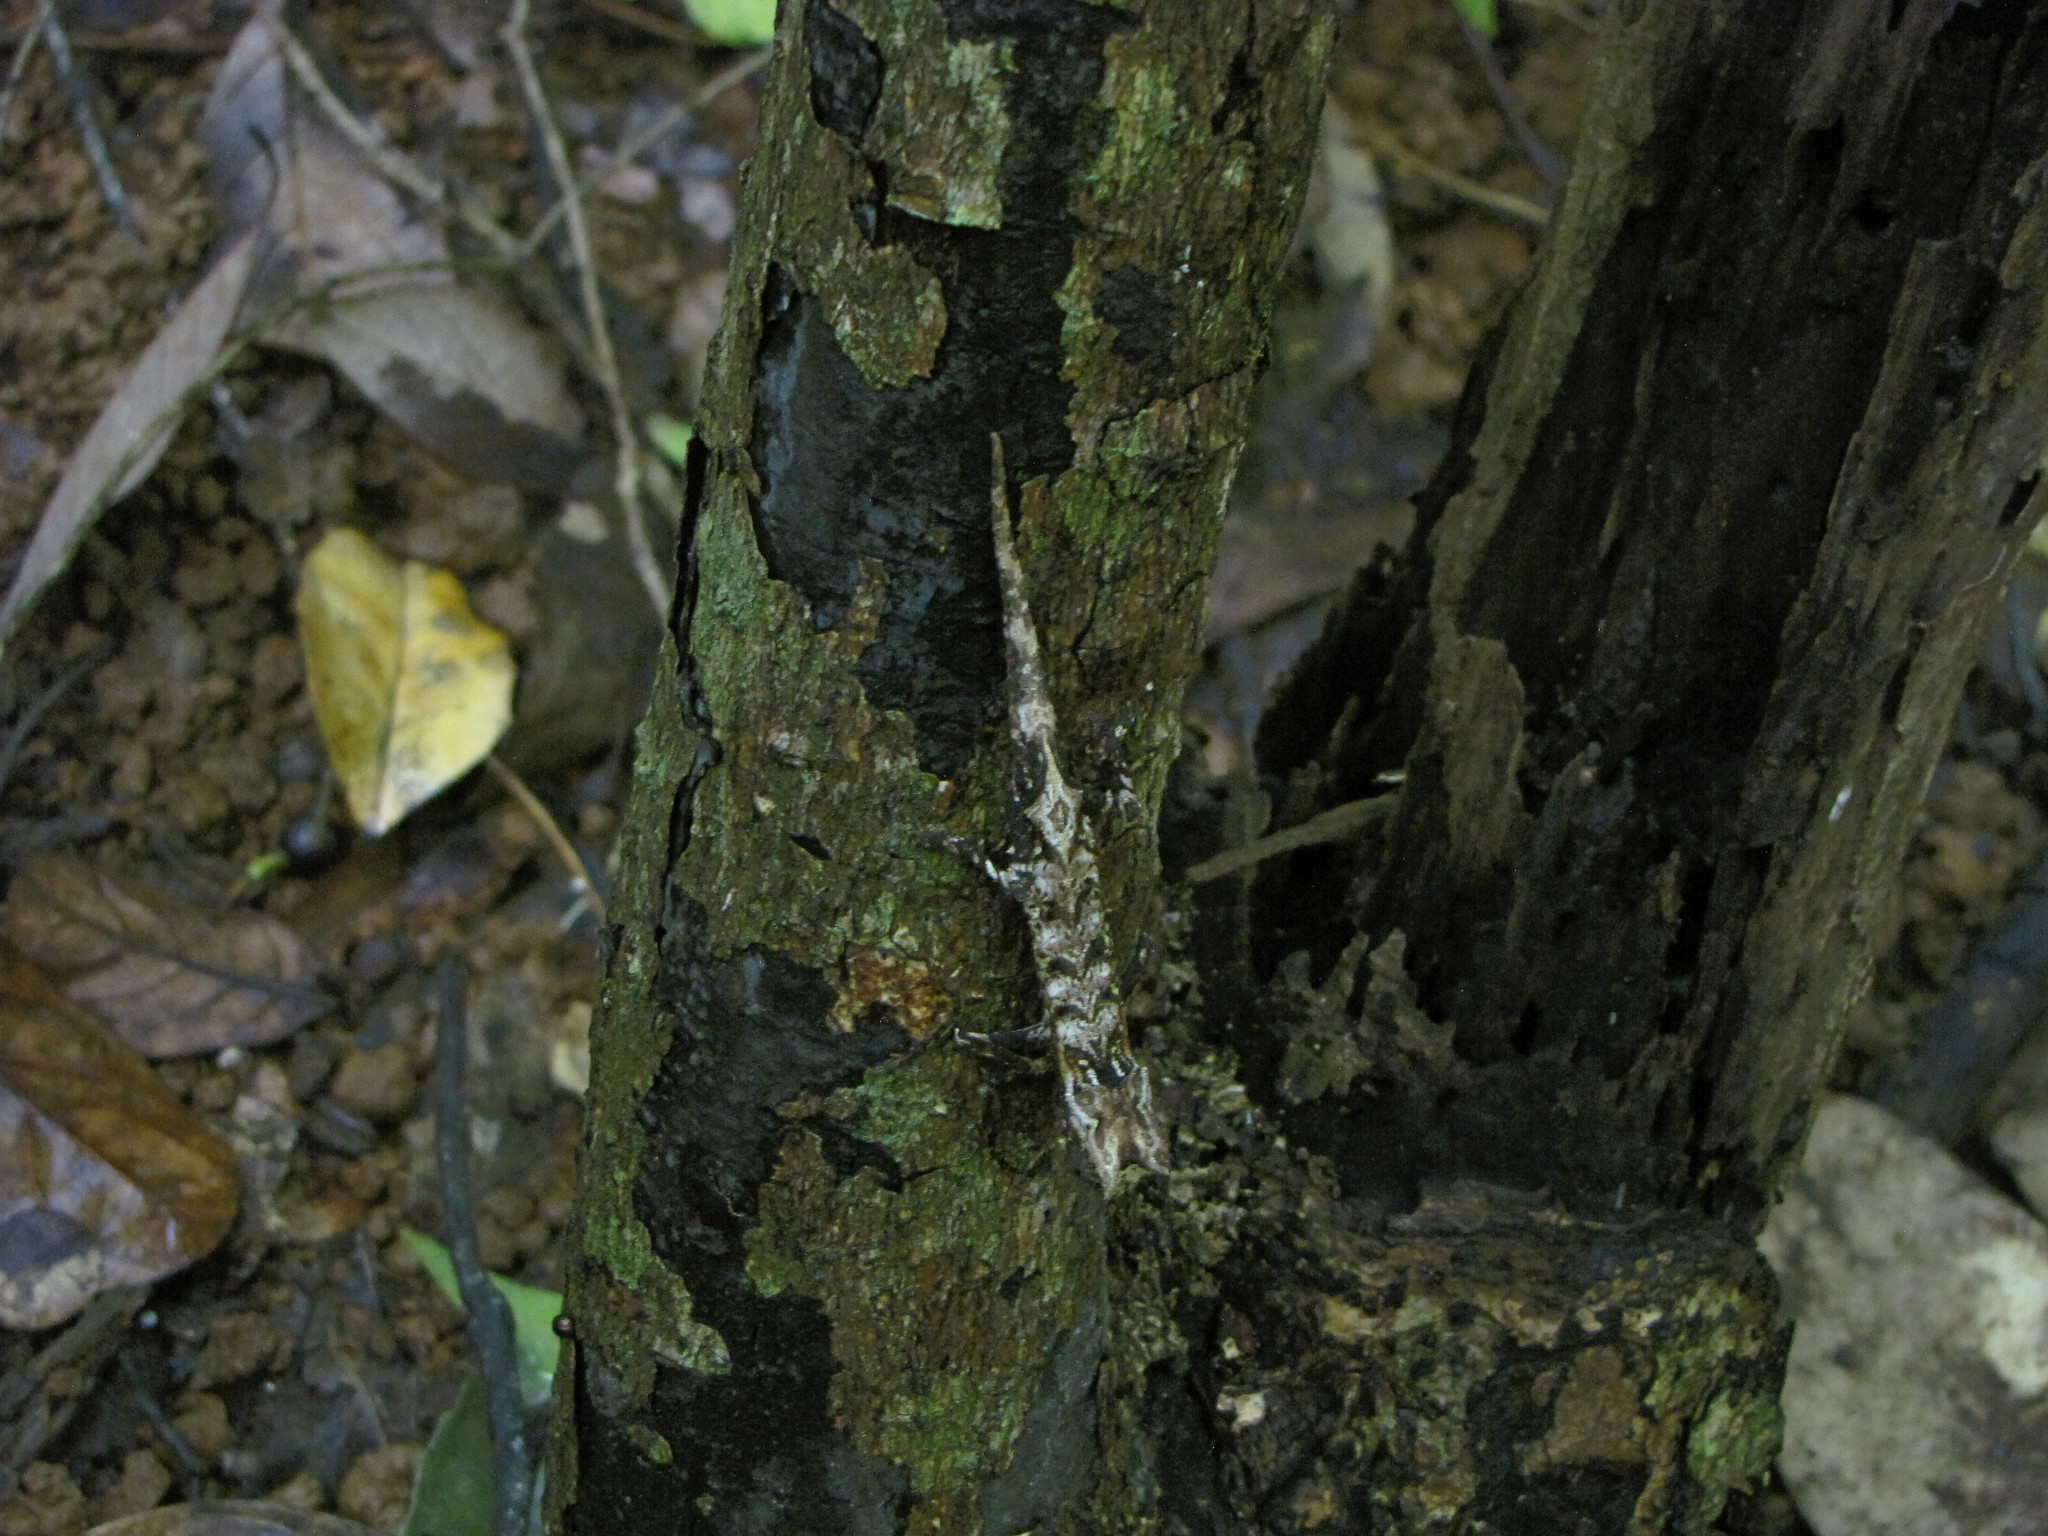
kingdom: Animalia
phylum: Chordata
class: Squamata
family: Chamaeleonidae
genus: Brookesia
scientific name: Brookesia stumpffi
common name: Plated leaf chameleon
